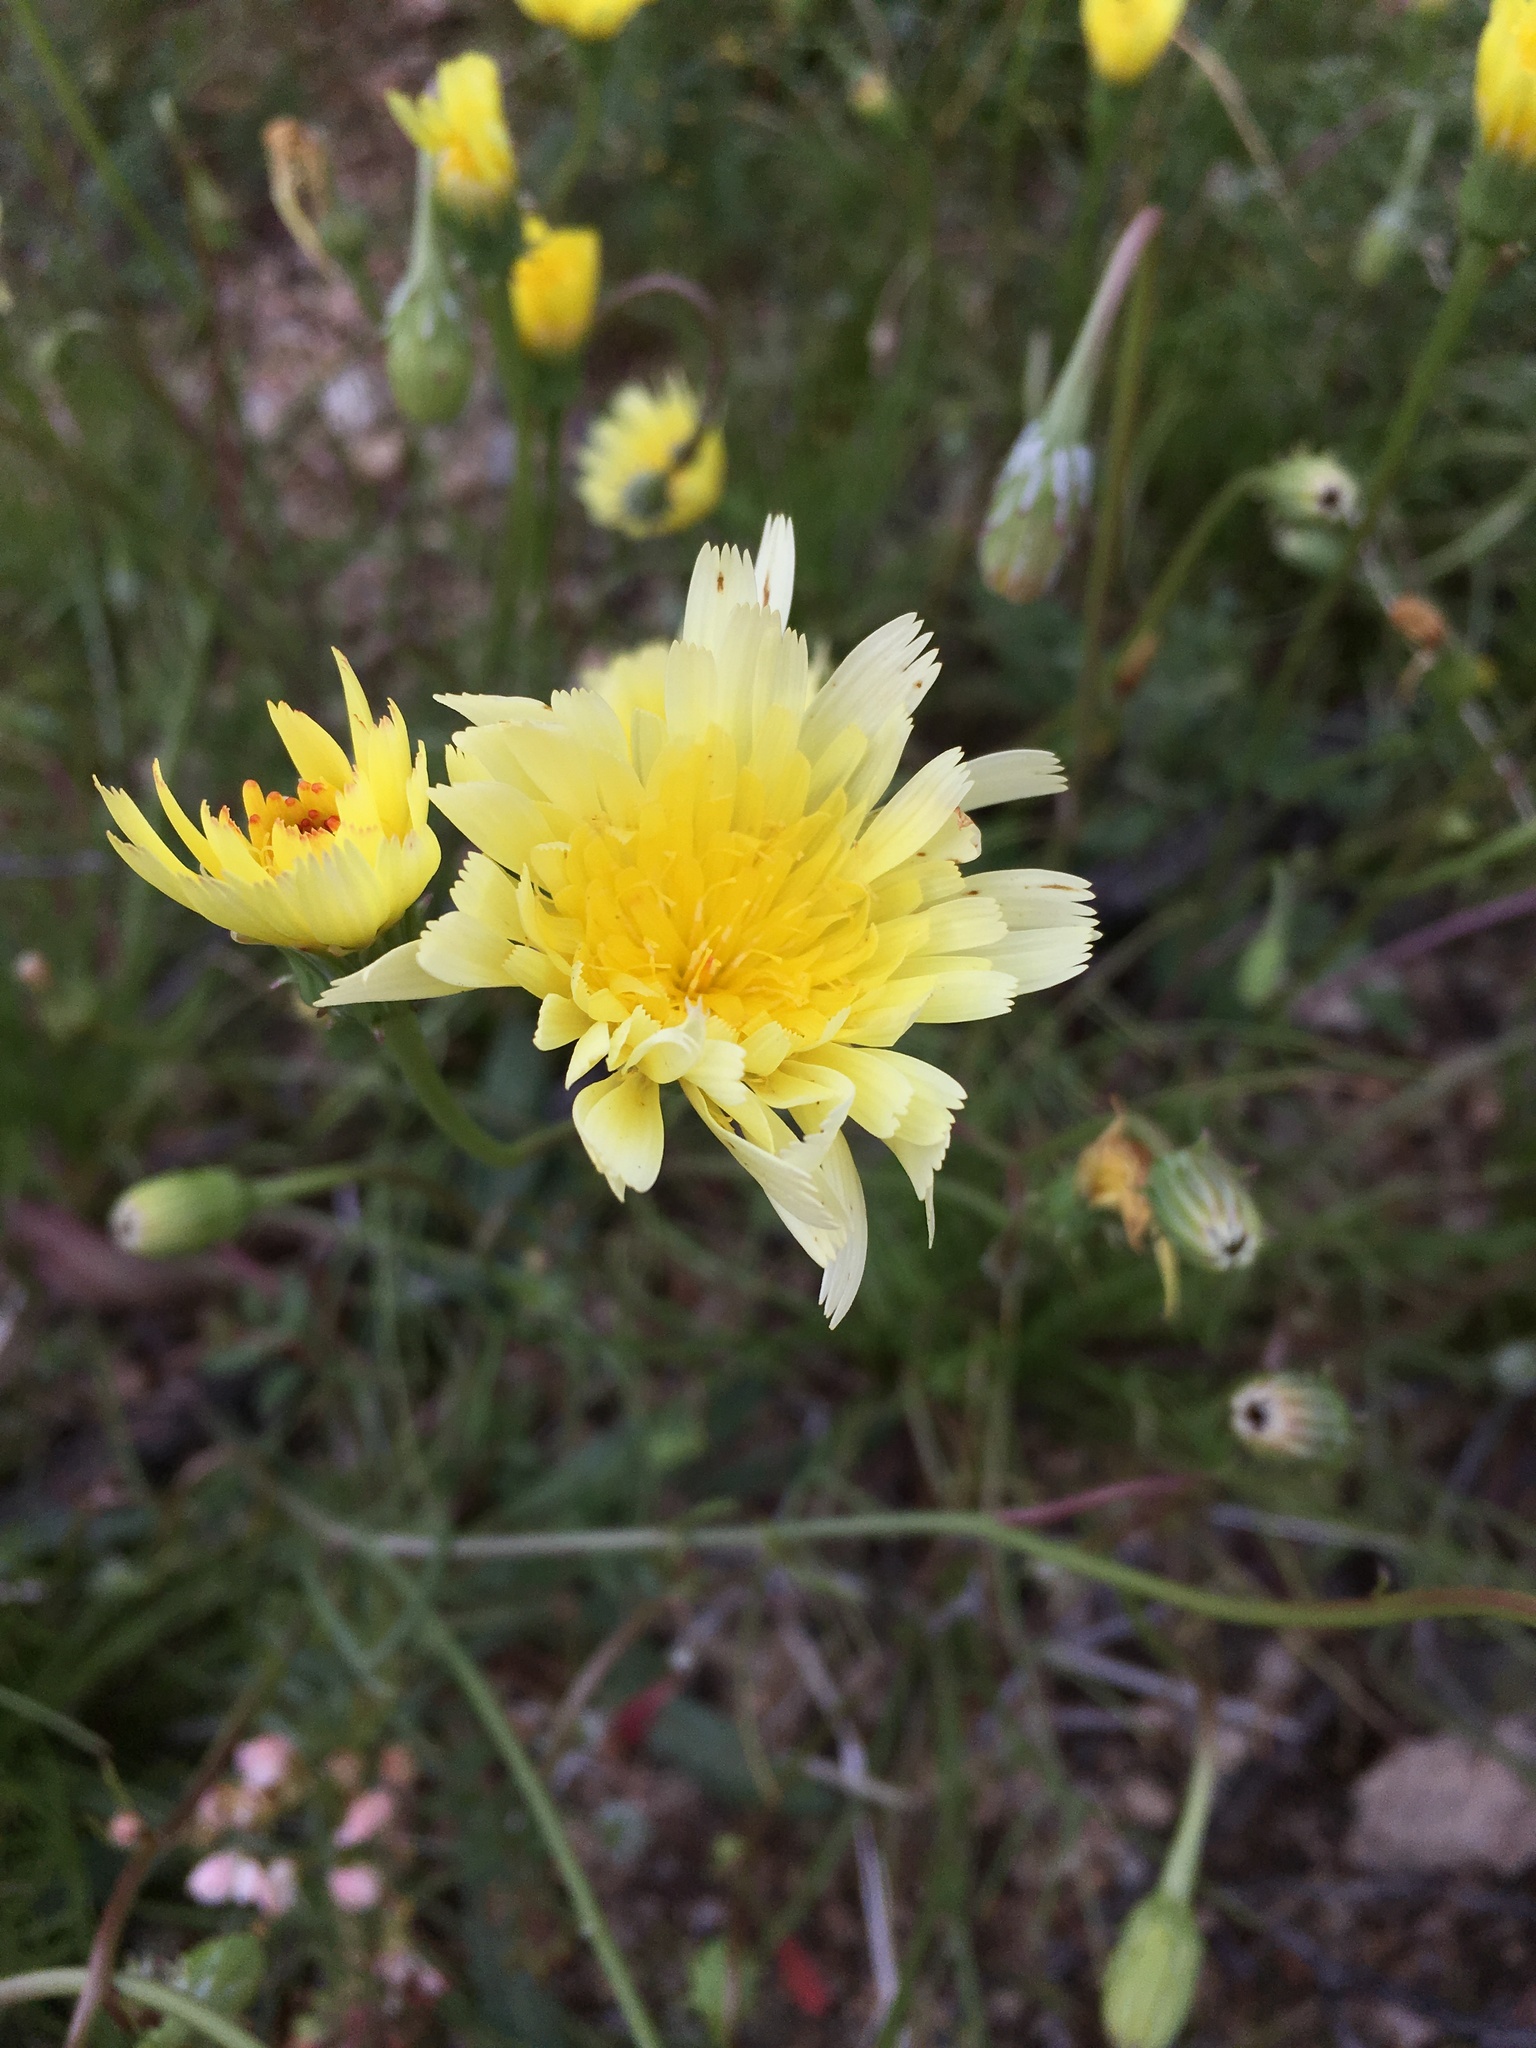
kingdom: Plantae
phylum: Tracheophyta
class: Magnoliopsida
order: Asterales
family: Asteraceae
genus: Malacothrix
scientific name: Malacothrix glabrata
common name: Smooth desert-dandelion
